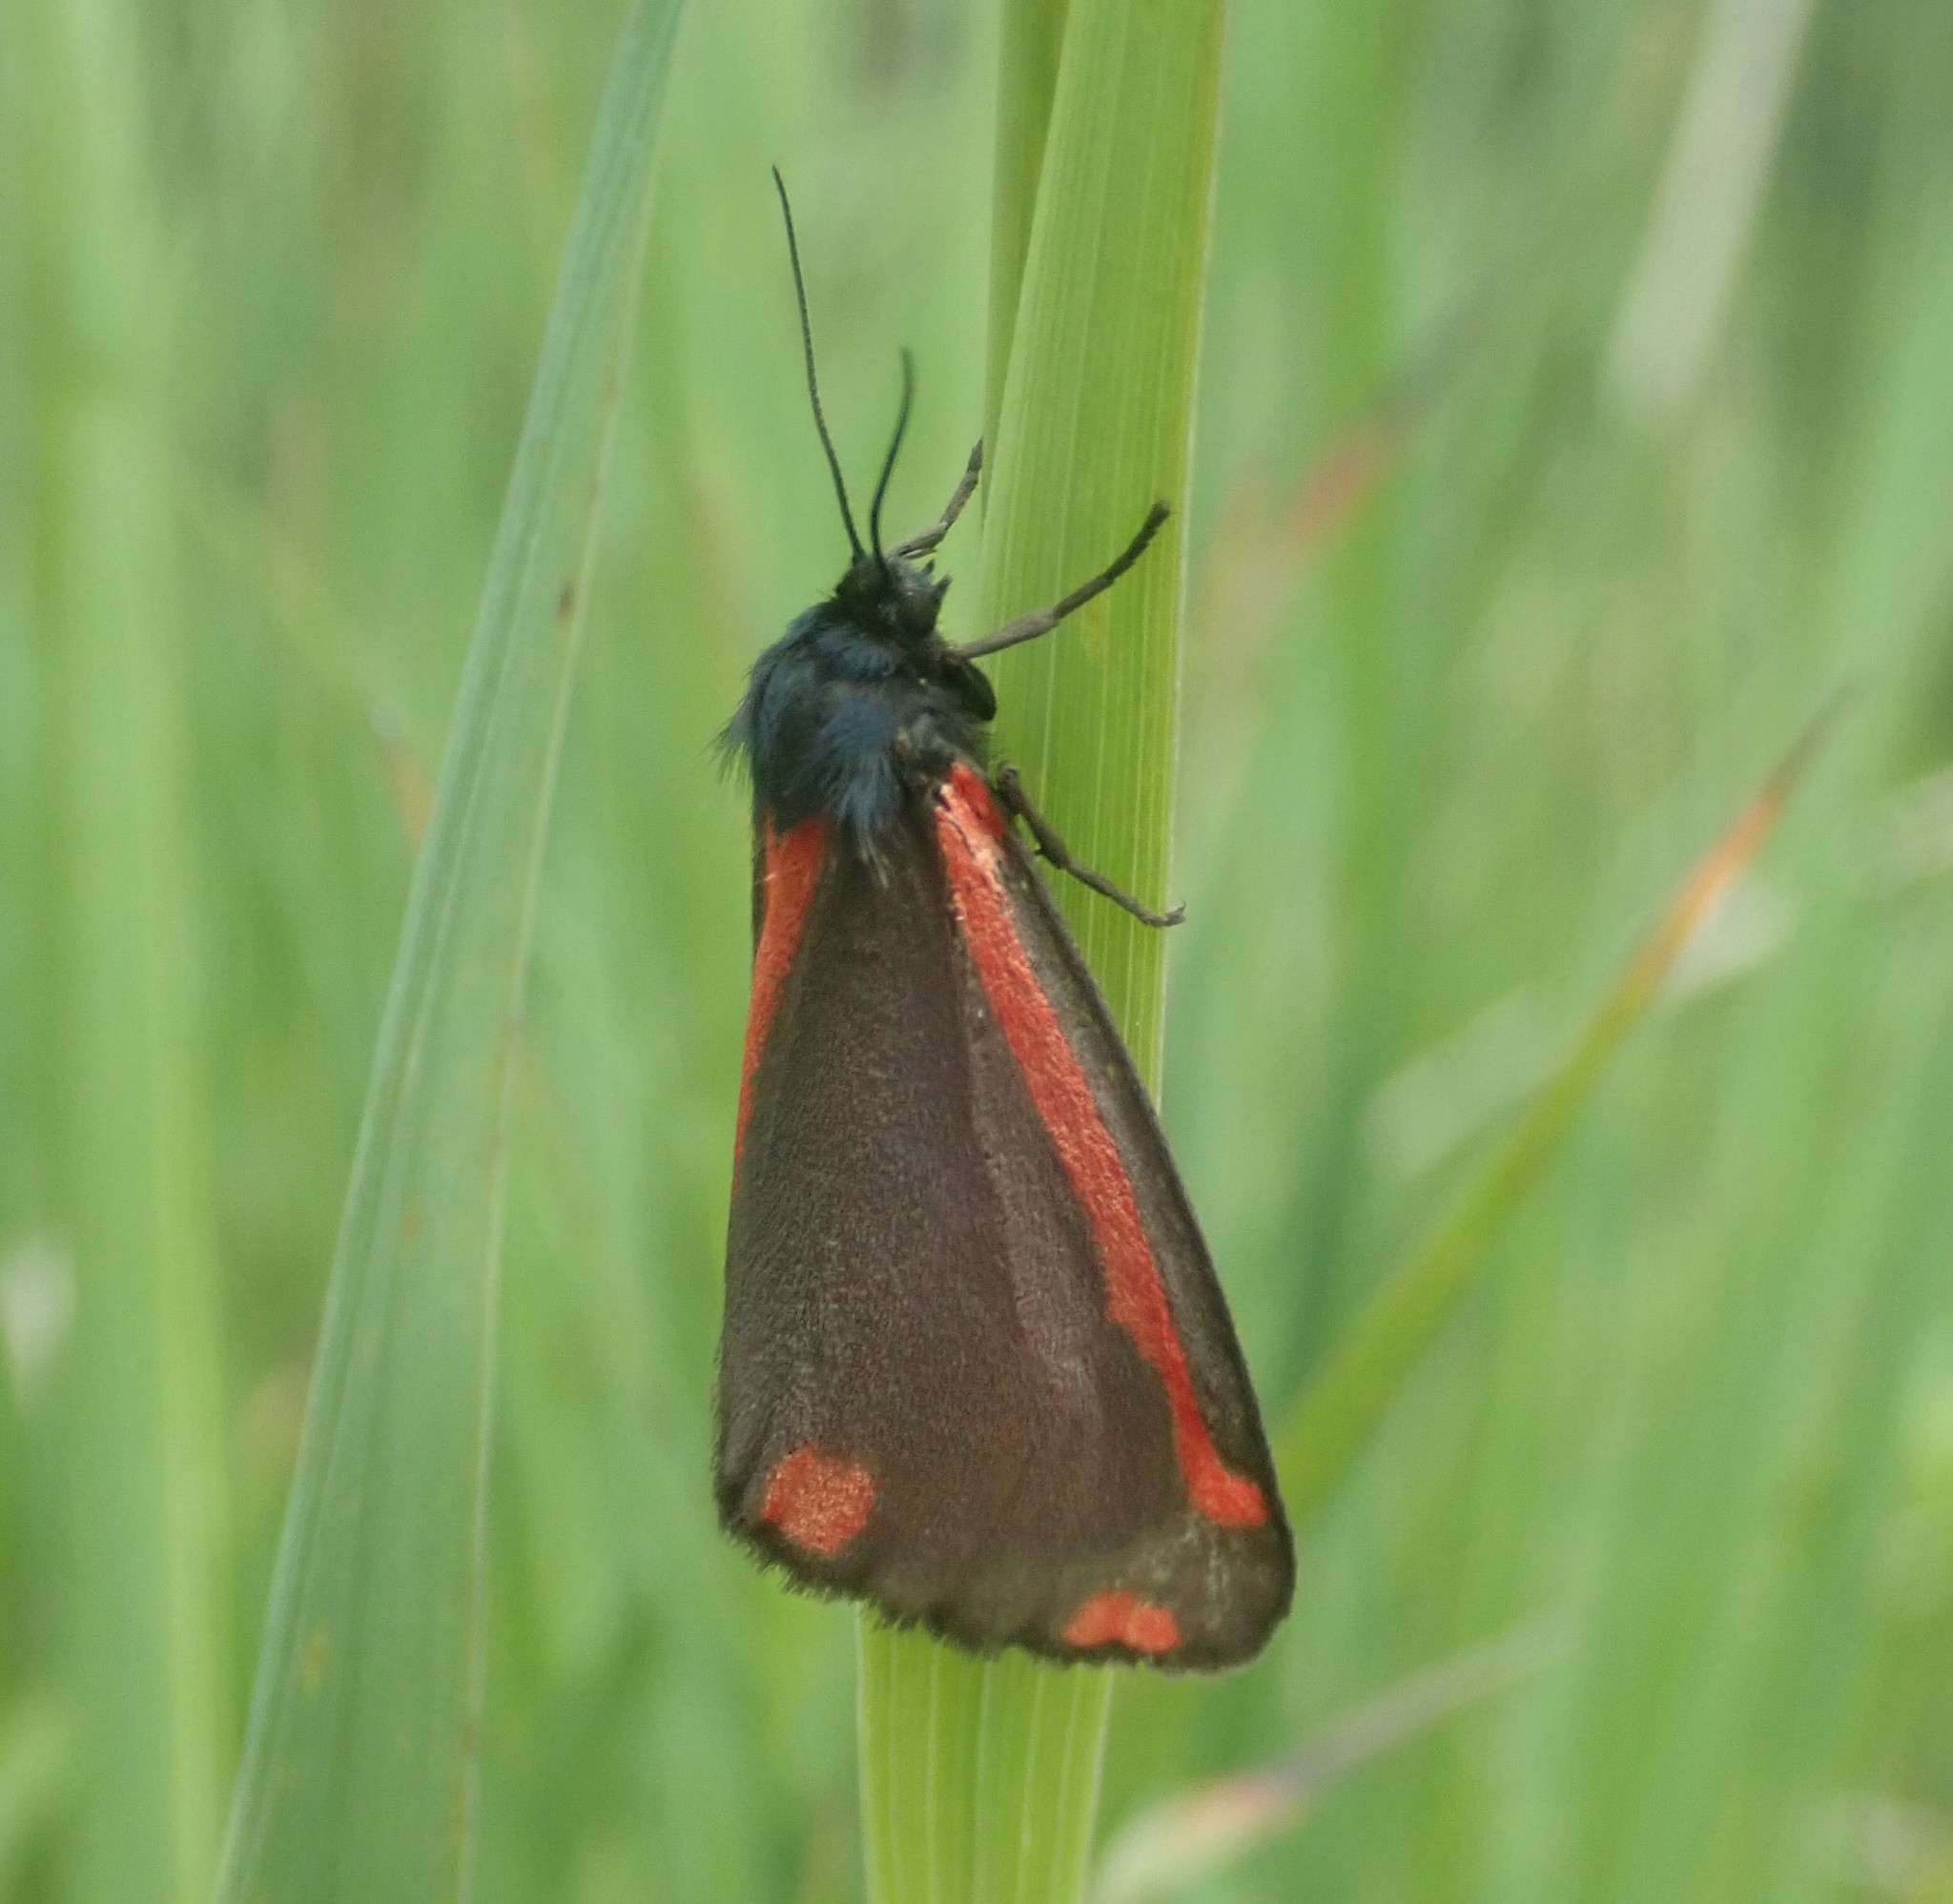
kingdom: Animalia
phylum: Arthropoda
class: Insecta
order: Lepidoptera
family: Erebidae
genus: Tyria
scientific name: Tyria jacobaeae
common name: Cinnabar
